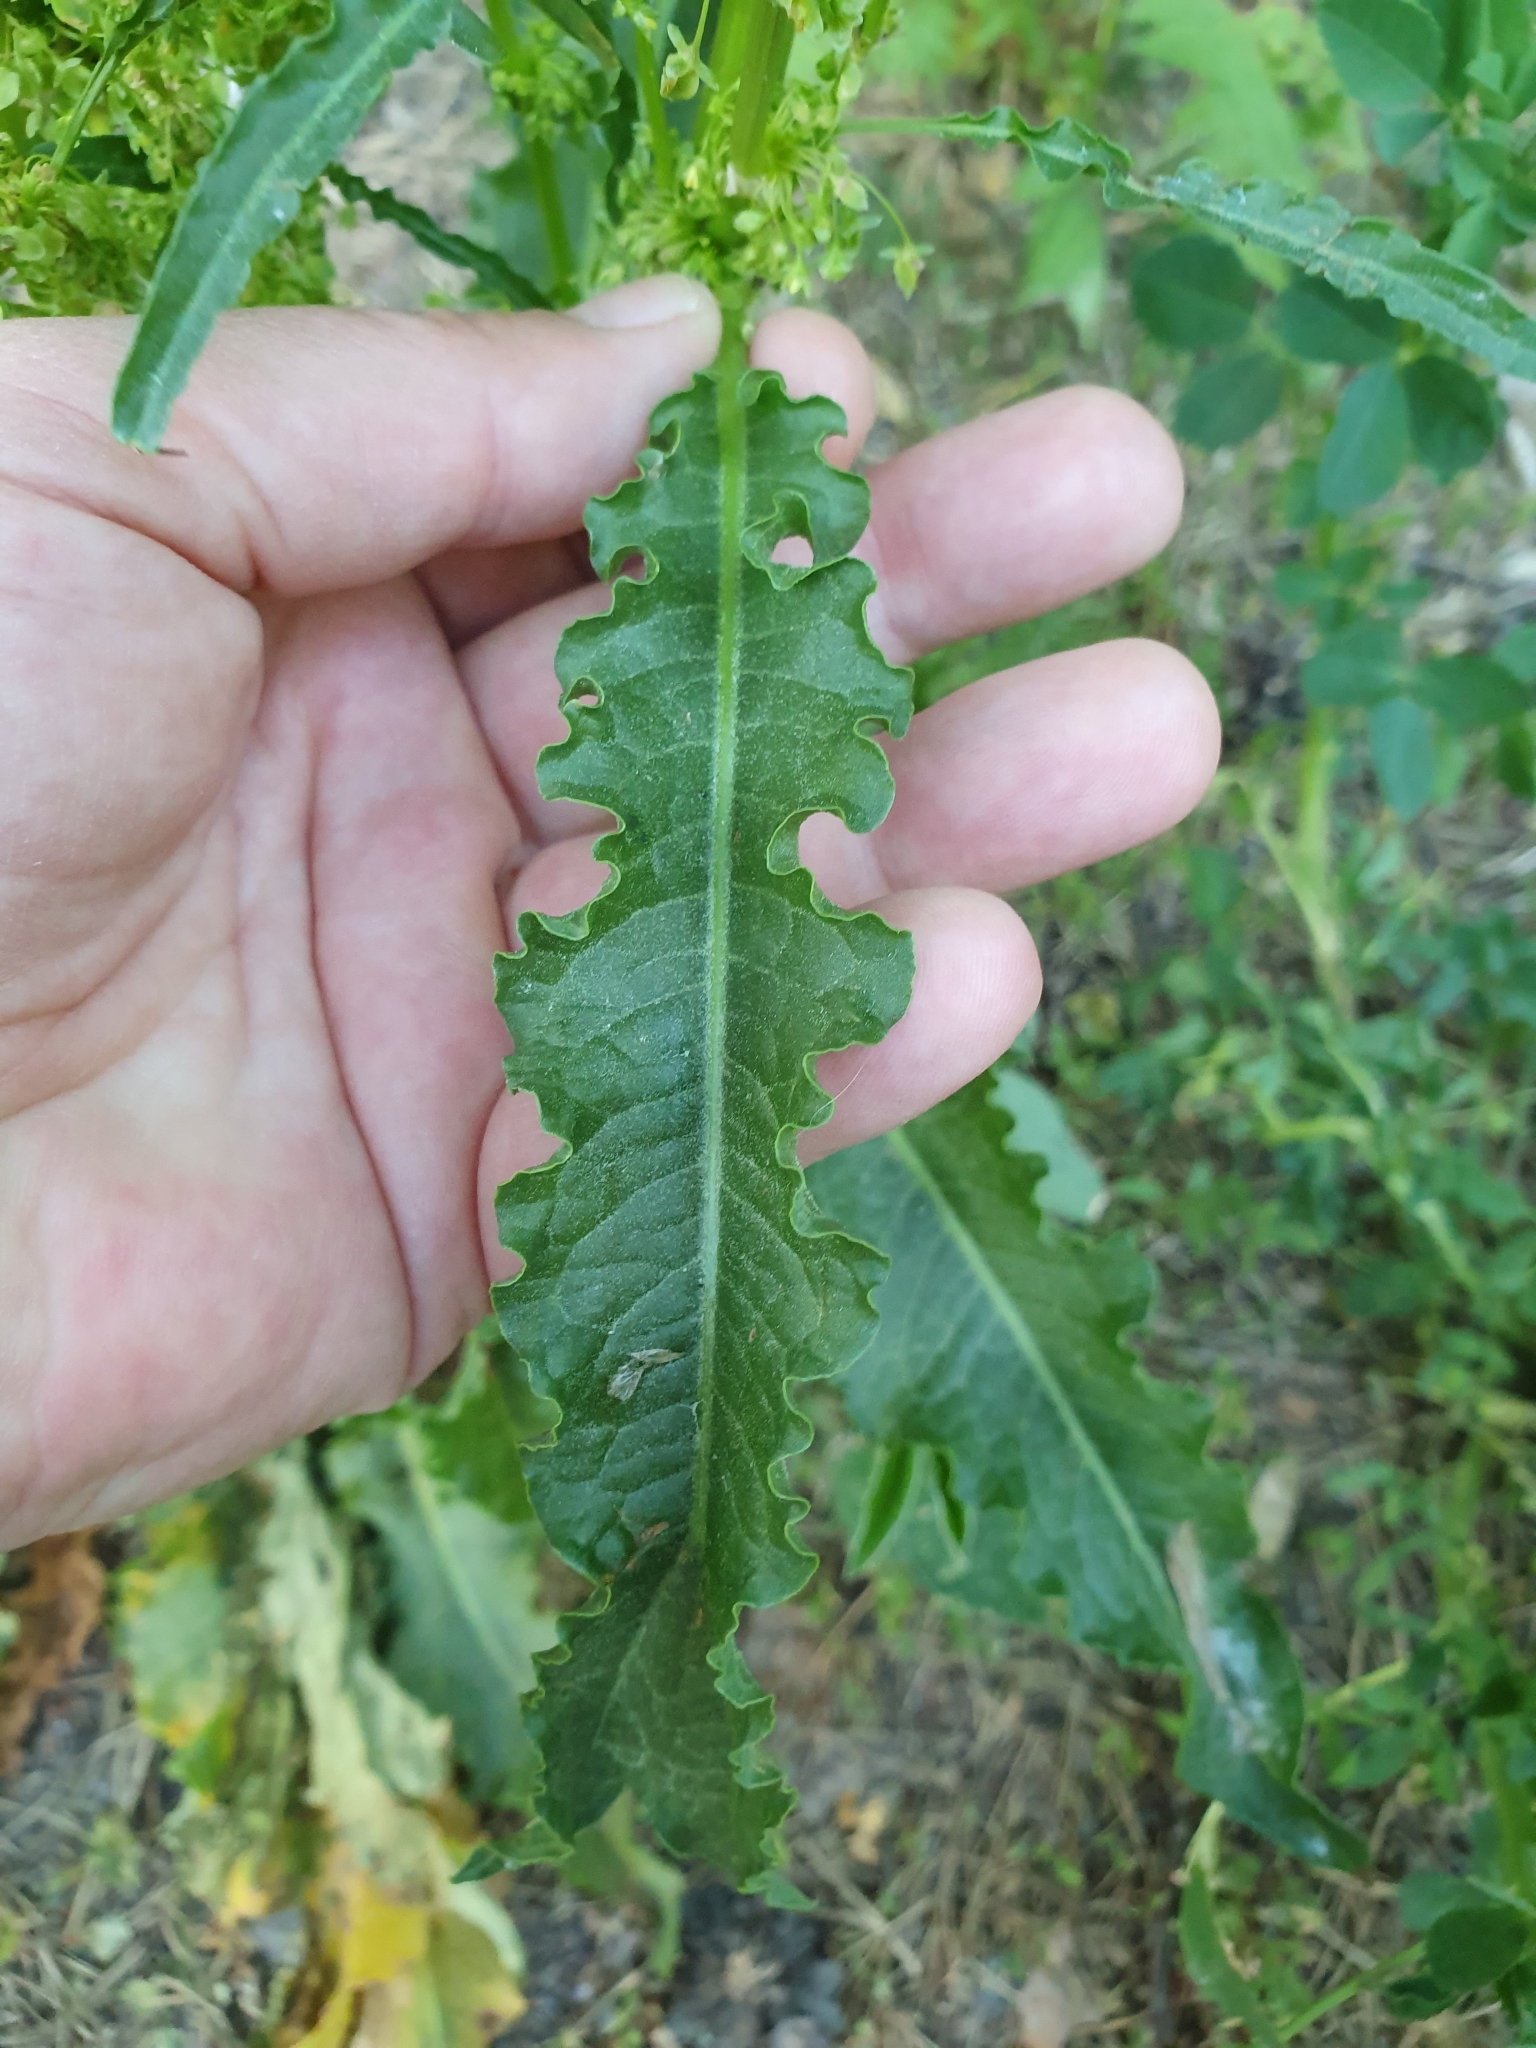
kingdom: Plantae
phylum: Tracheophyta
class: Magnoliopsida
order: Caryophyllales
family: Polygonaceae
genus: Rumex
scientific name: Rumex crispus
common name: Curled dock
